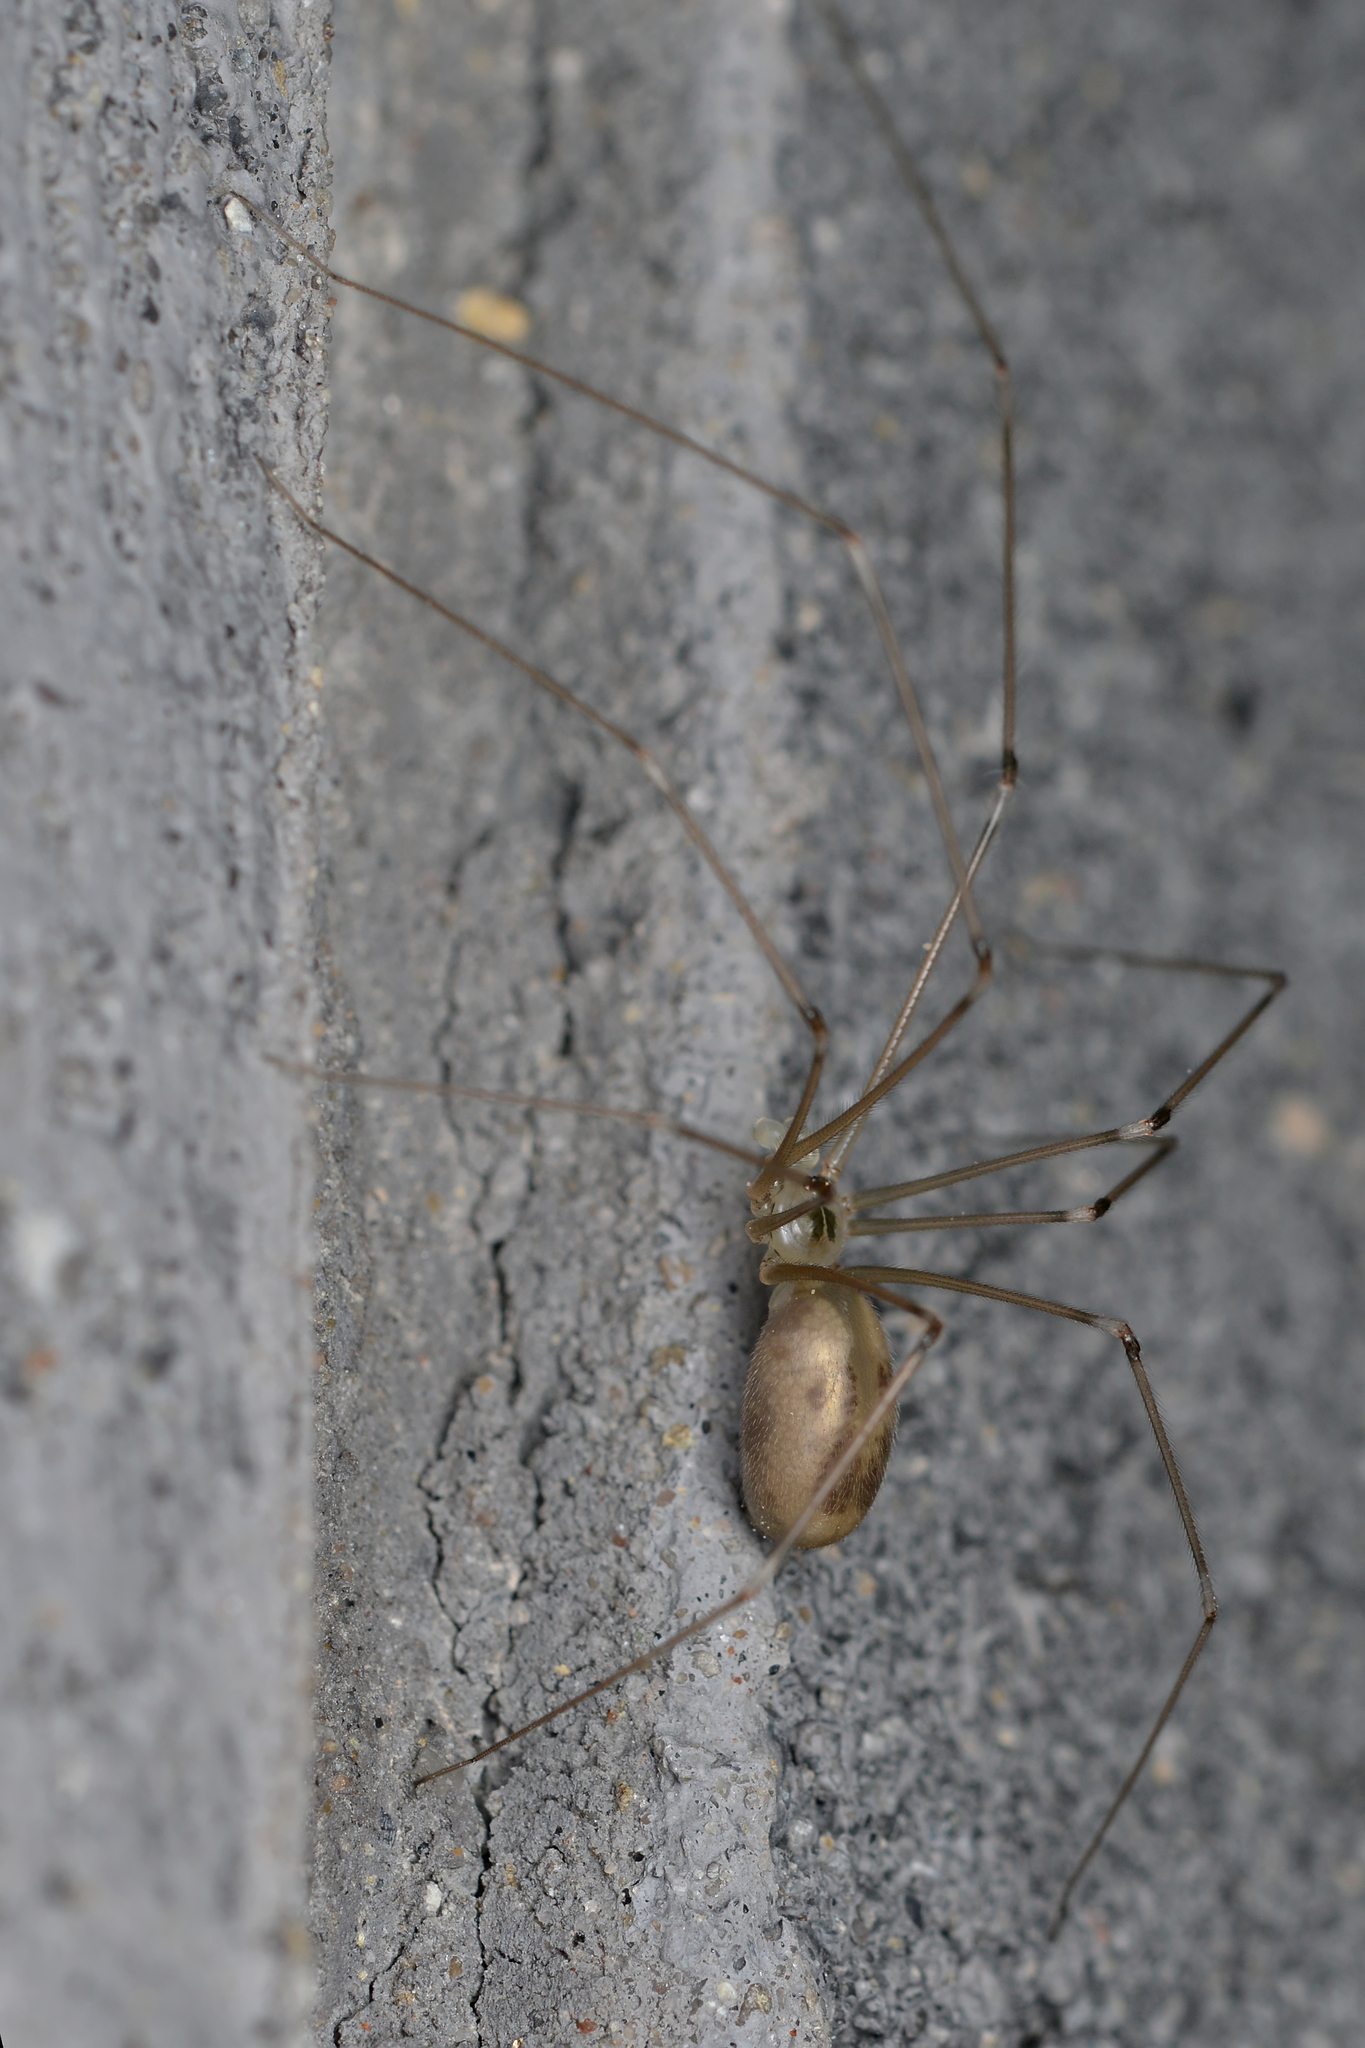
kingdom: Animalia
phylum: Arthropoda
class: Arachnida
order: Araneae
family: Pholcidae
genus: Pholcus
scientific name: Pholcus phalangioides
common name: Longbodied cellar spider
